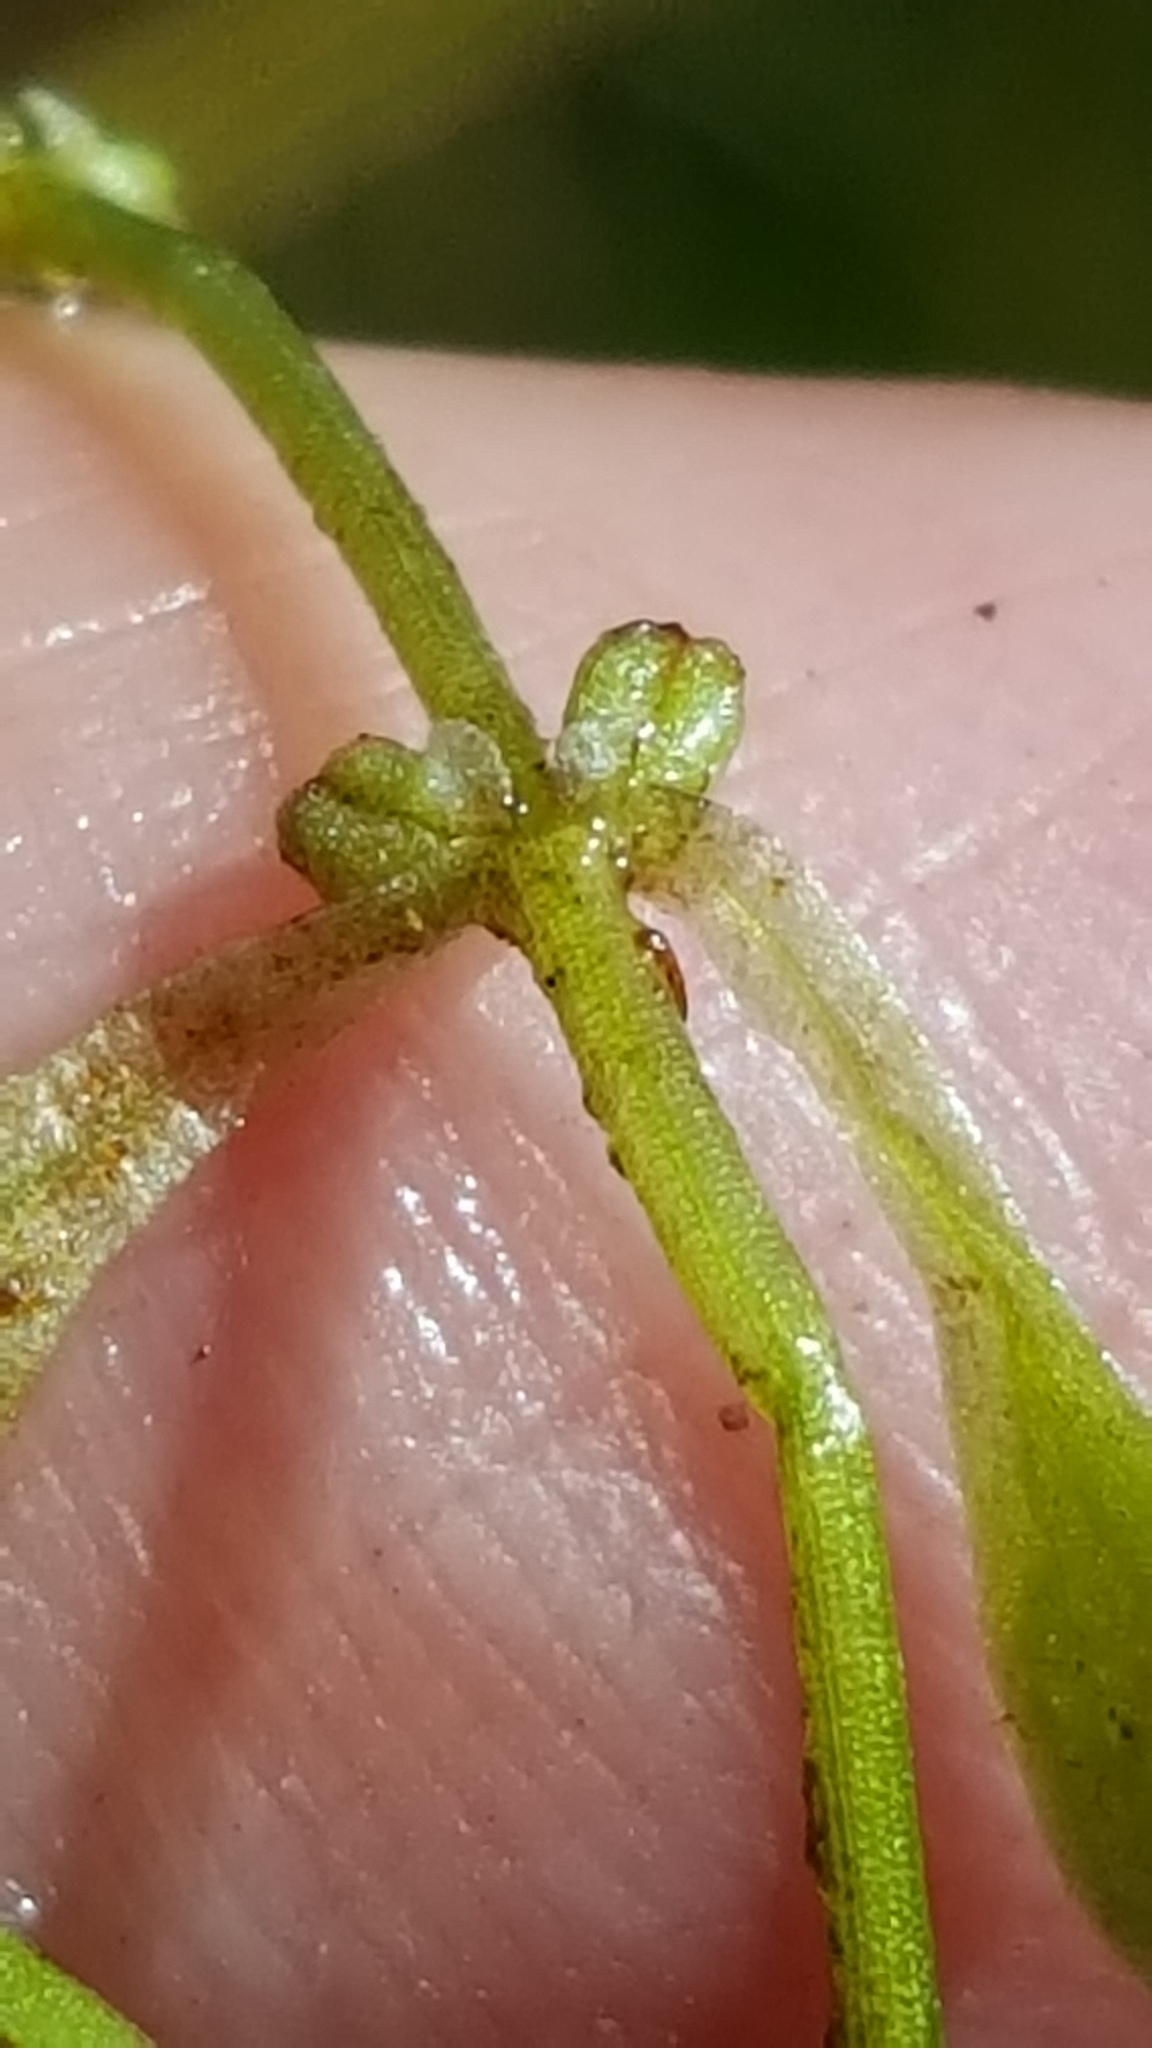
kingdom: Plantae
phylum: Tracheophyta
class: Magnoliopsida
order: Lamiales
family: Plantaginaceae
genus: Callitriche
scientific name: Callitriche palustris
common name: Spring water-starwort
